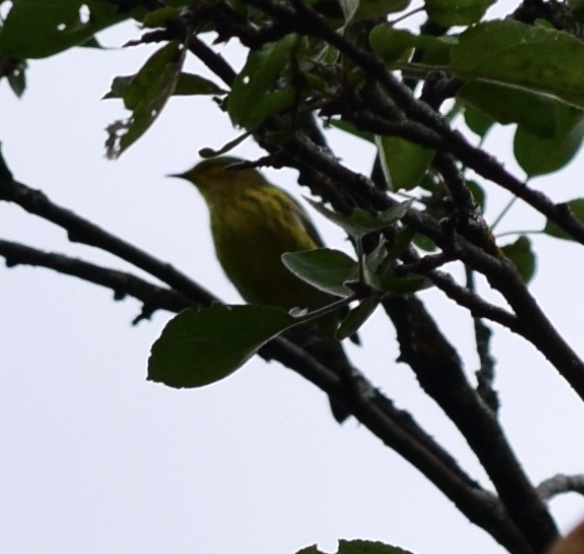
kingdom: Animalia
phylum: Chordata
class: Aves
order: Passeriformes
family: Parulidae
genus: Setophaga
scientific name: Setophaga tigrina
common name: Cape may warbler
